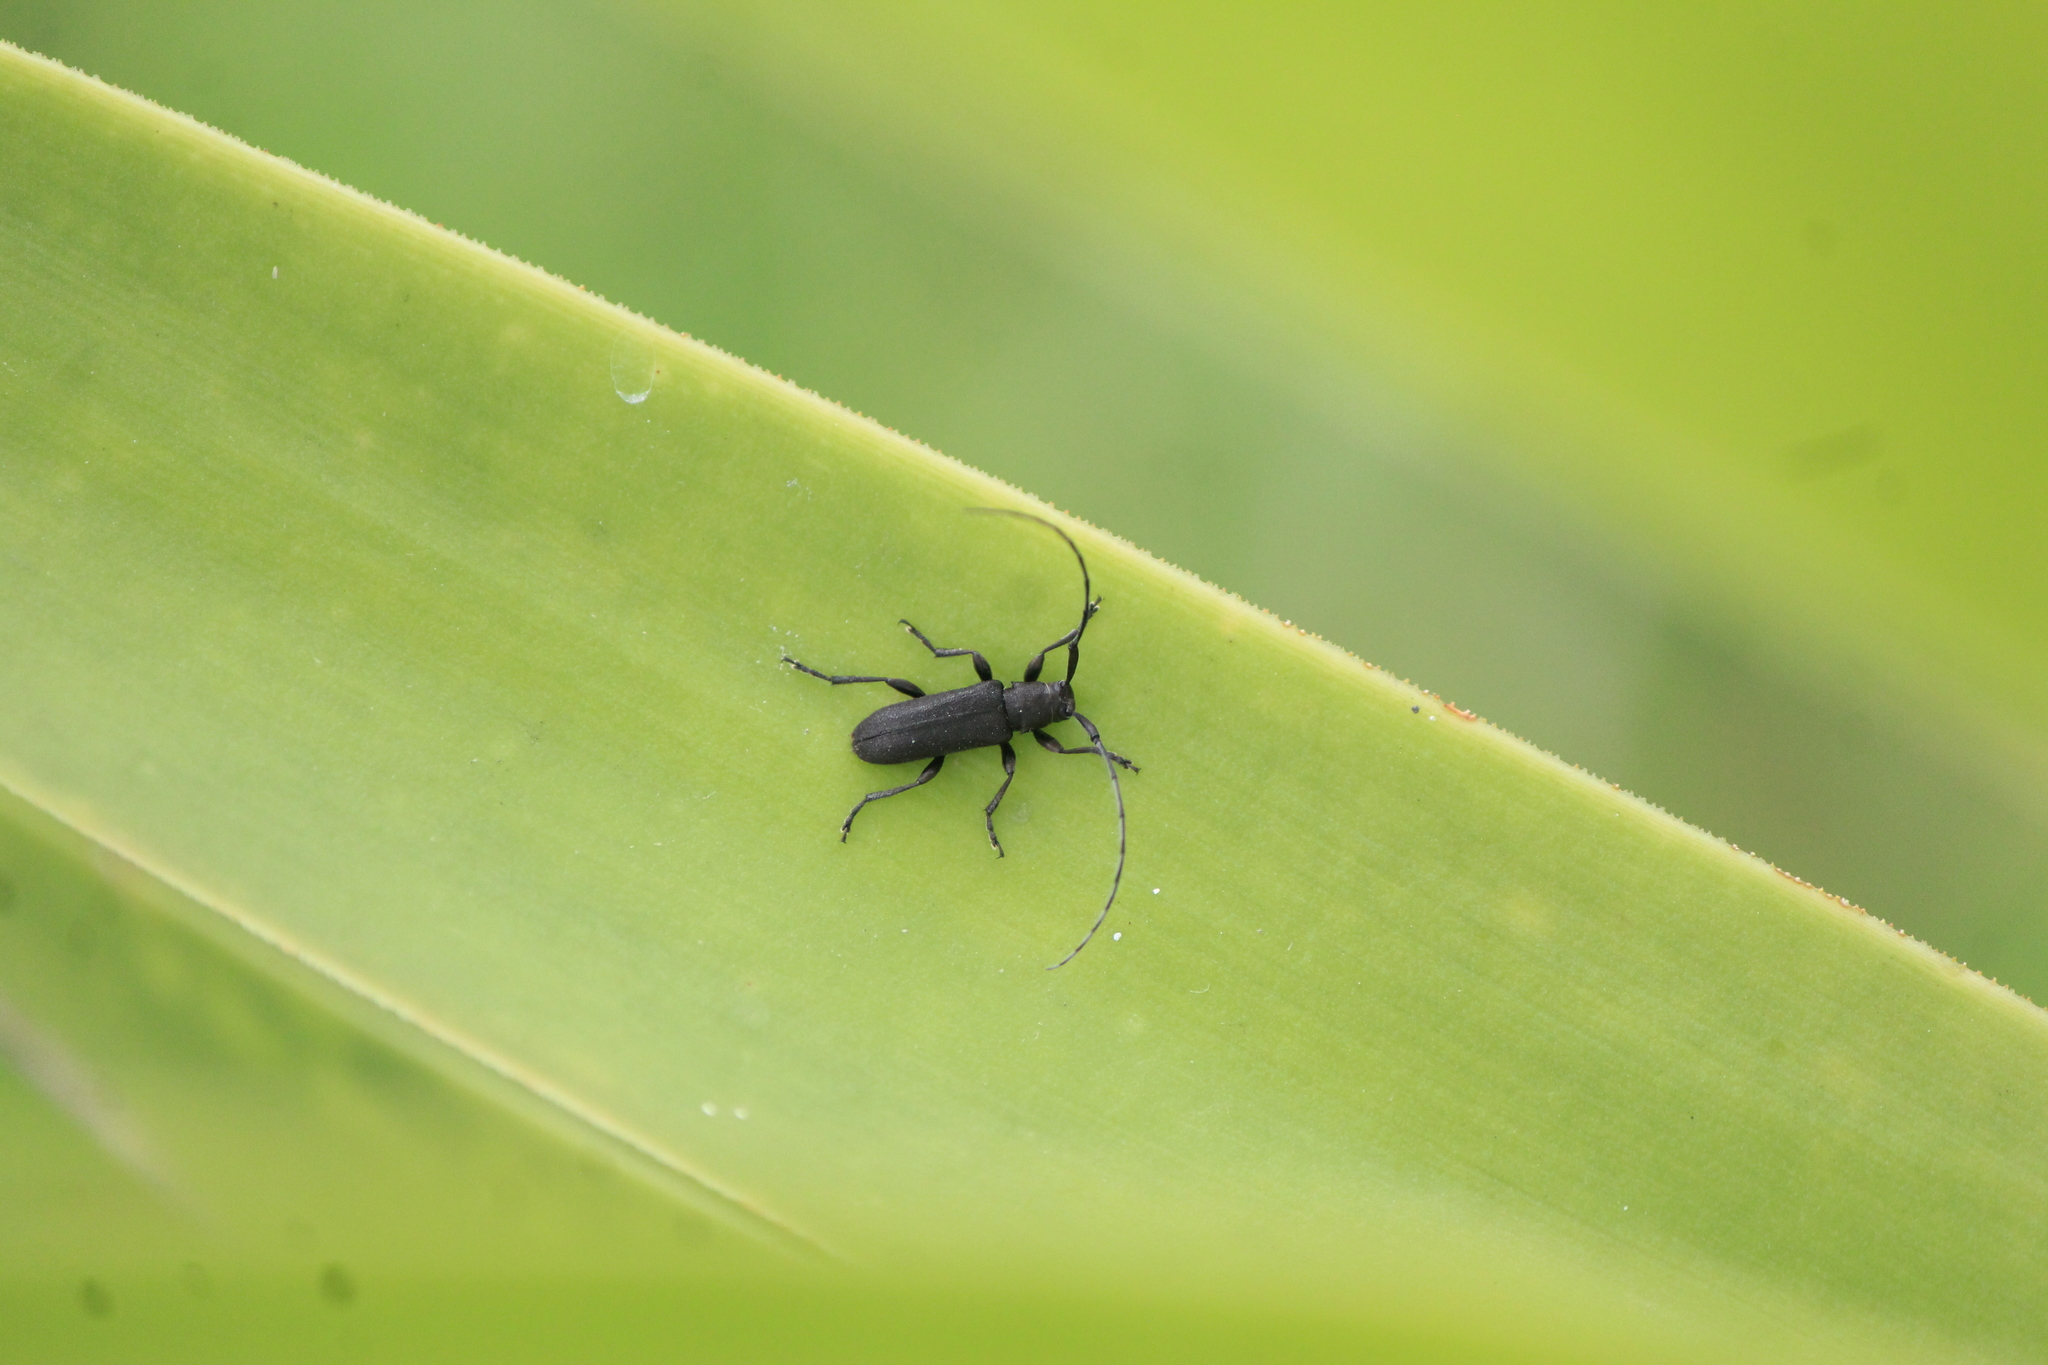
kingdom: Animalia
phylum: Arthropoda
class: Insecta
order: Coleoptera
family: Cerambycidae
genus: Dectes
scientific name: Dectes nigripilus
